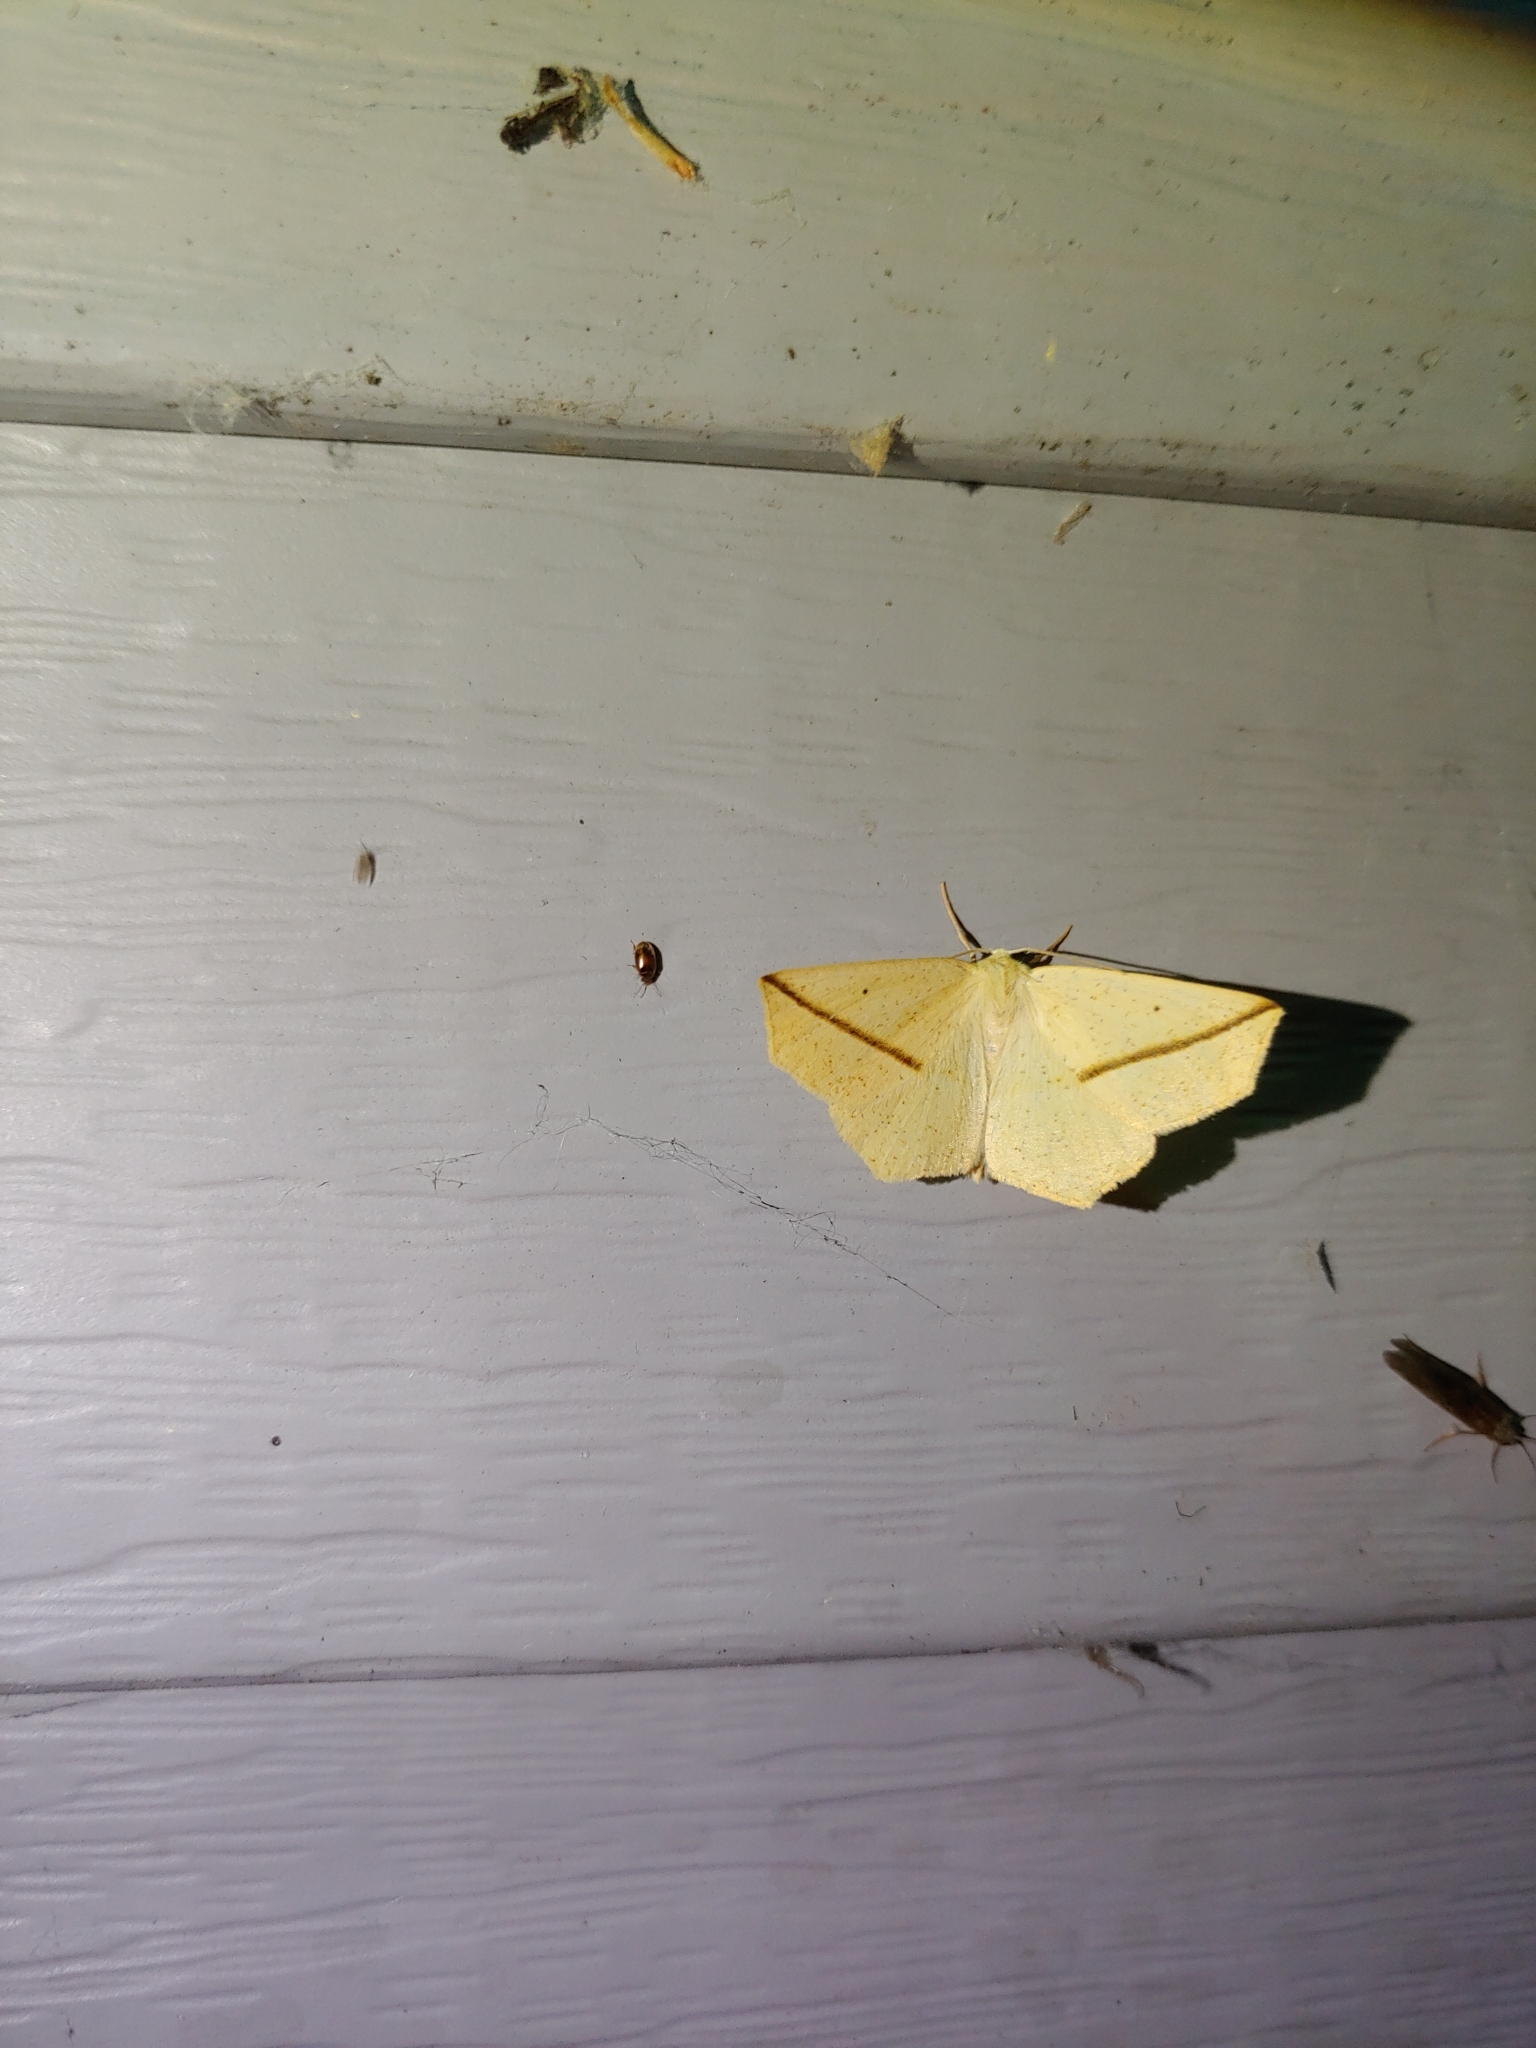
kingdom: Animalia
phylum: Arthropoda
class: Insecta
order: Lepidoptera
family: Geometridae
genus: Tetracis
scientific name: Tetracis crocallata
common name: Yellow slant-line
